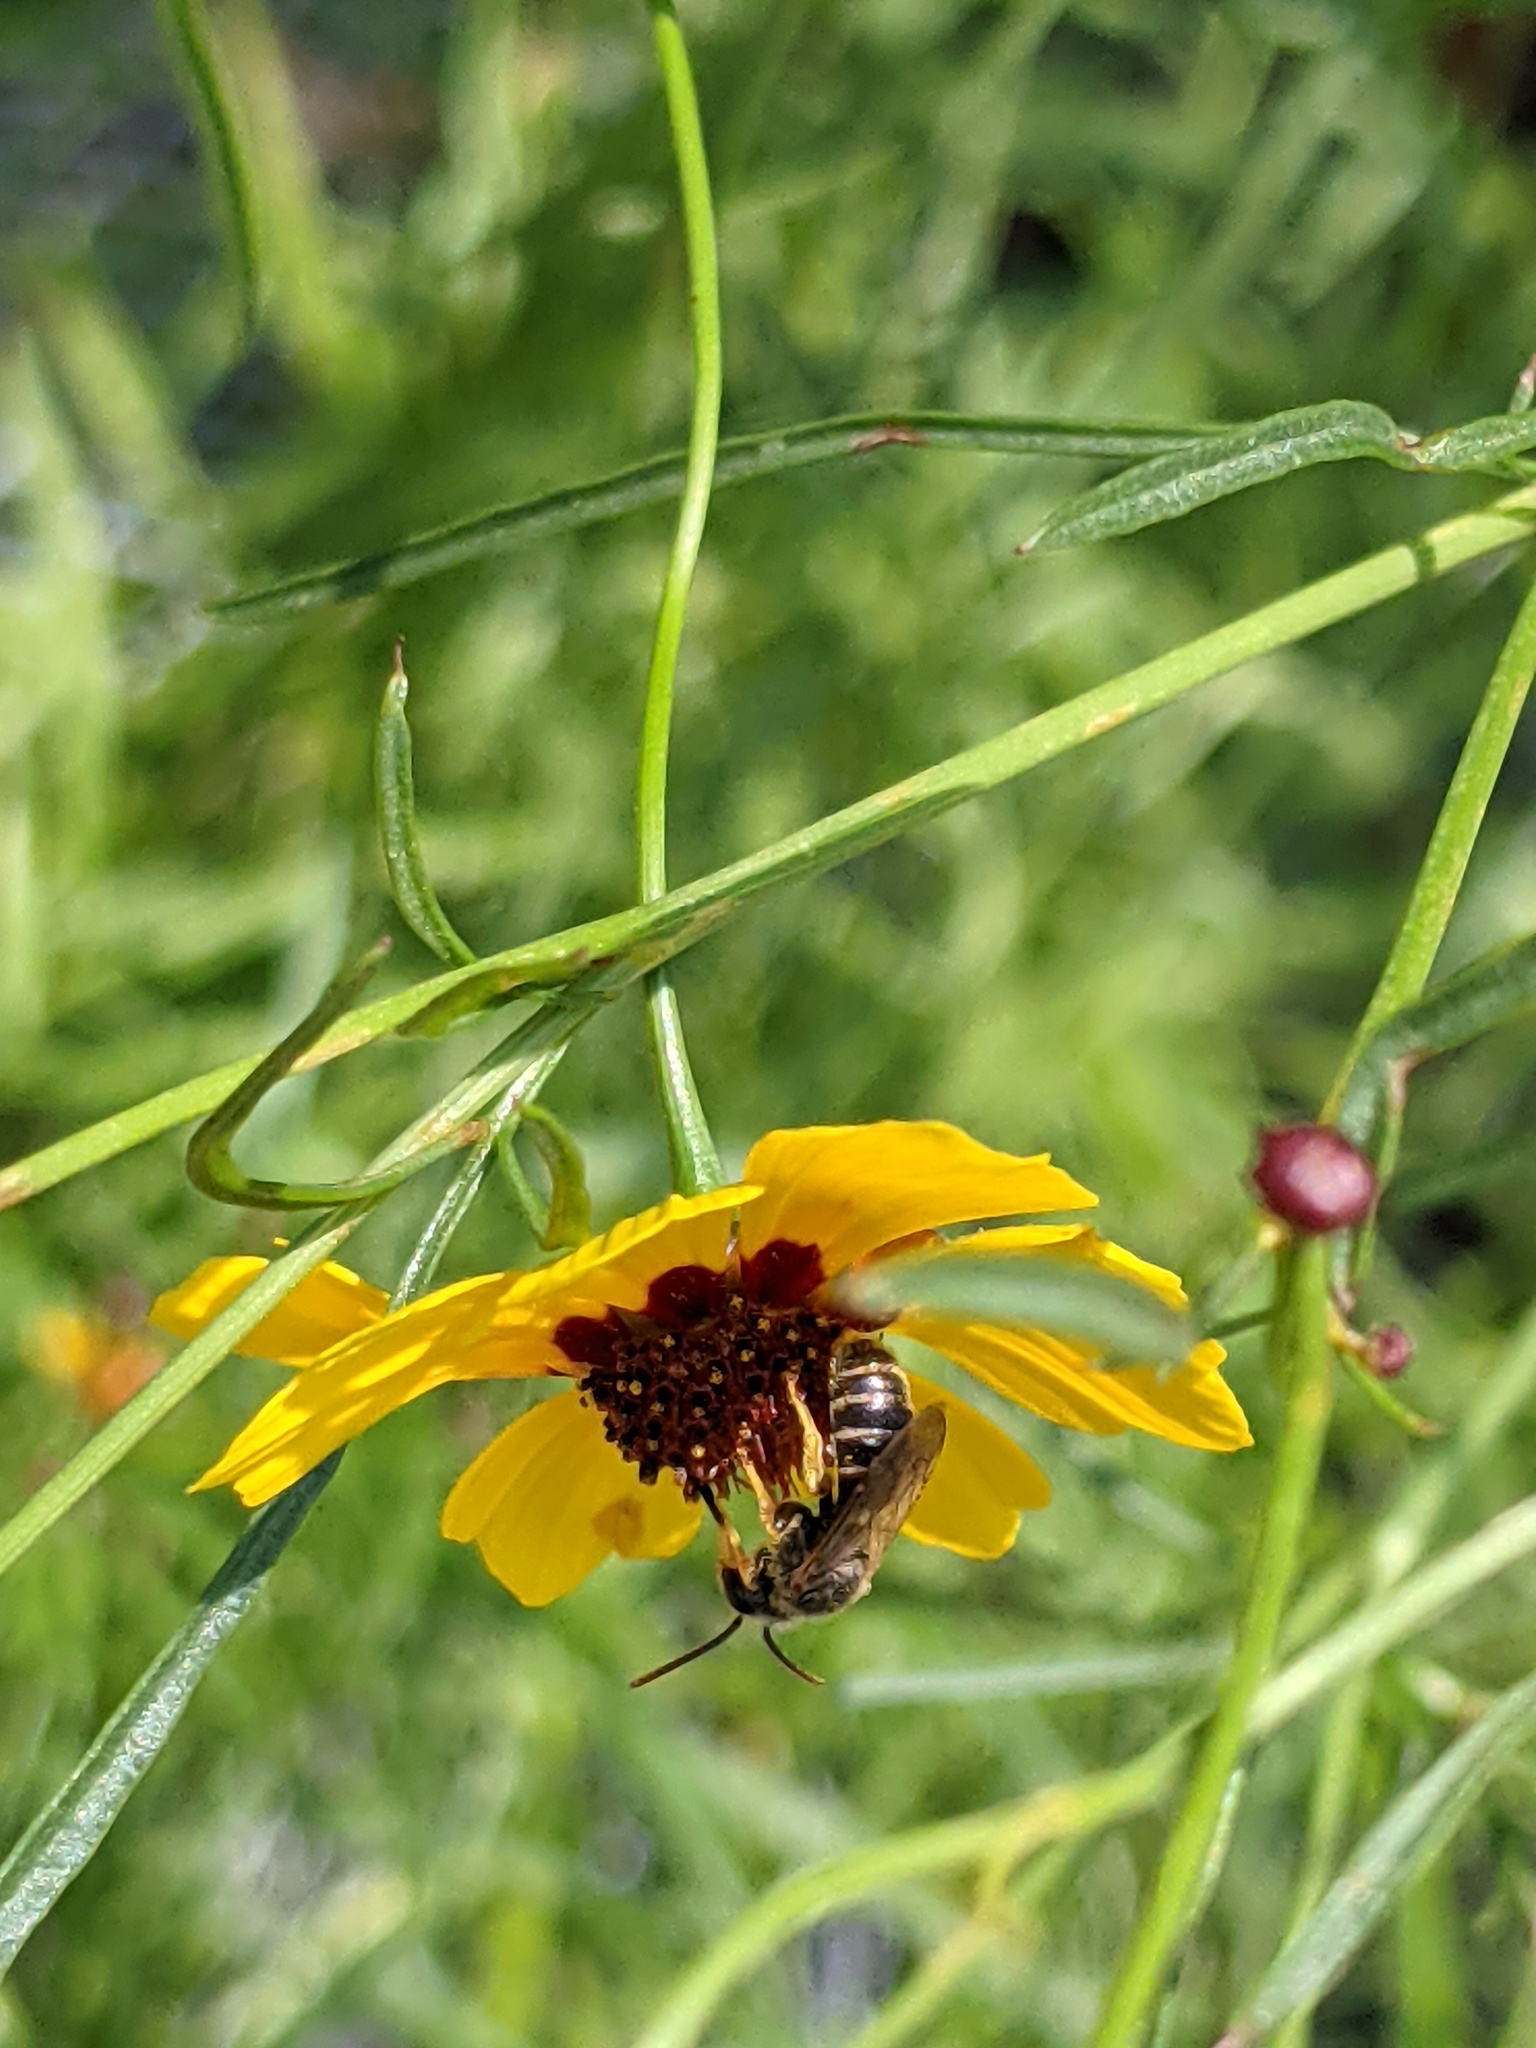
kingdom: Animalia
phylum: Arthropoda
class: Insecta
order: Hymenoptera
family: Halictidae
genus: Halictus
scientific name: Halictus ligatus
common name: Ligated furrow bee
